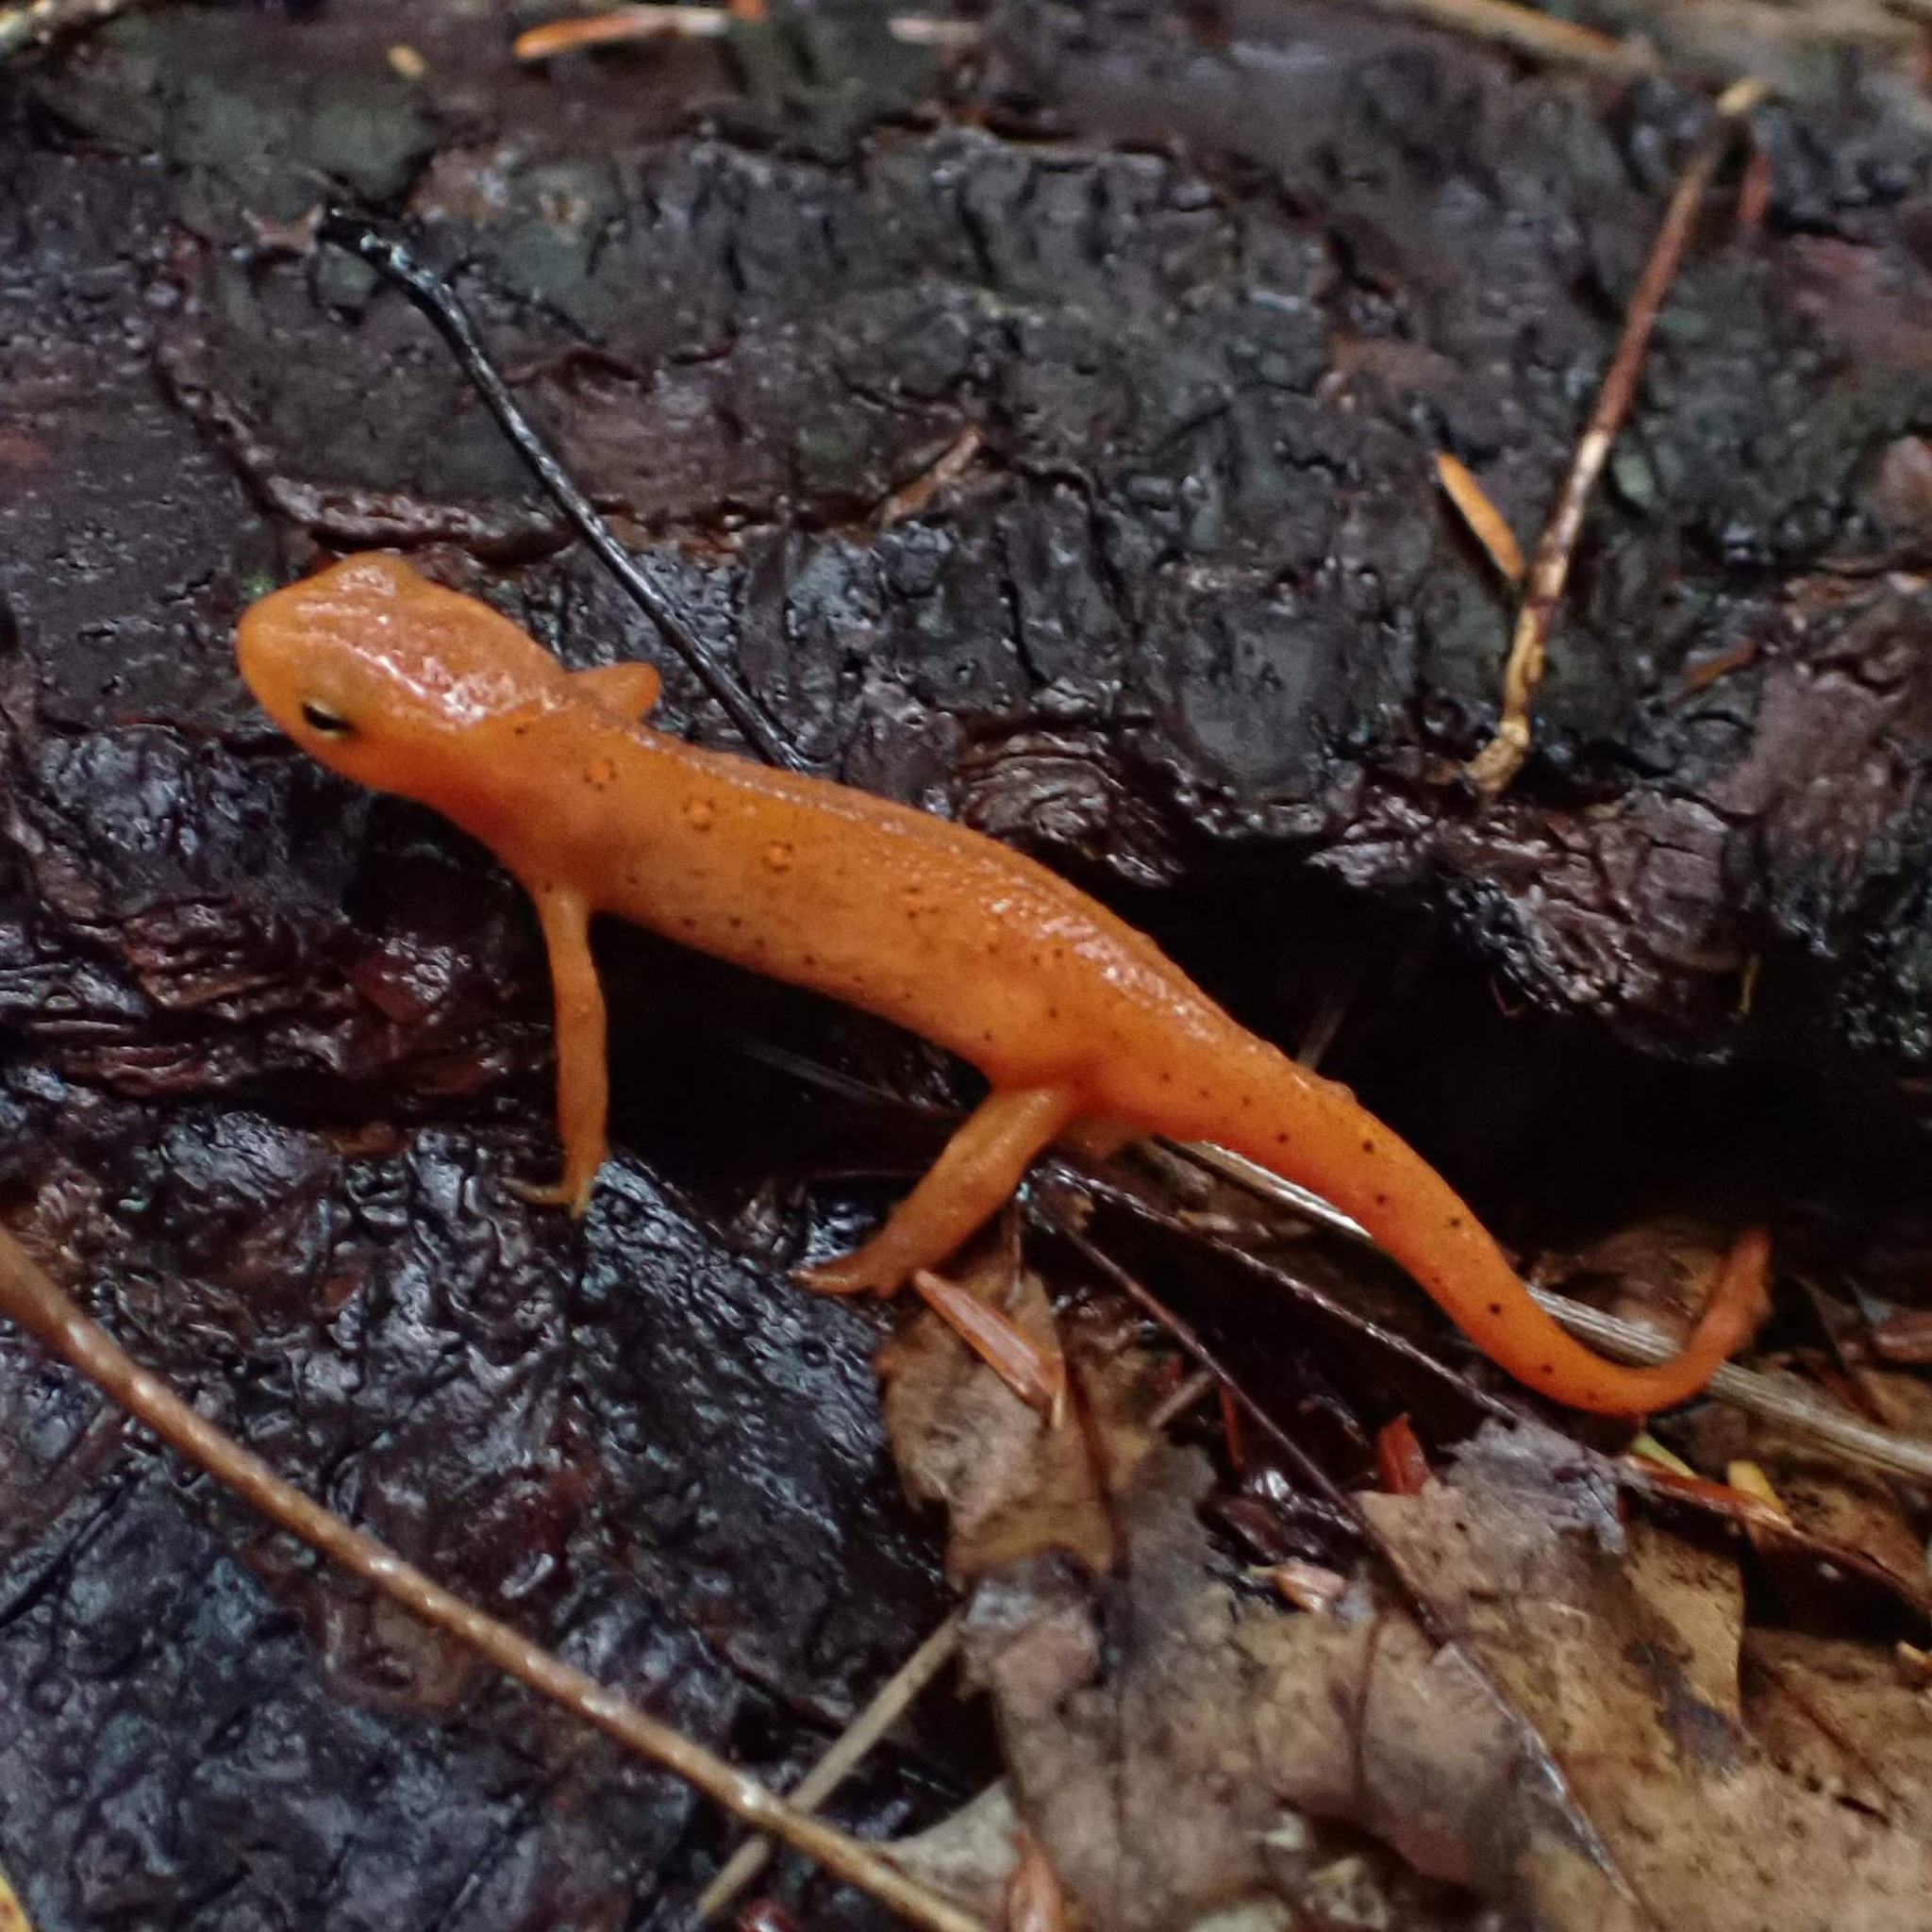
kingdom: Animalia
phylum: Chordata
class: Amphibia
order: Caudata
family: Salamandridae
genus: Notophthalmus
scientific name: Notophthalmus viridescens
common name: Eastern newt
